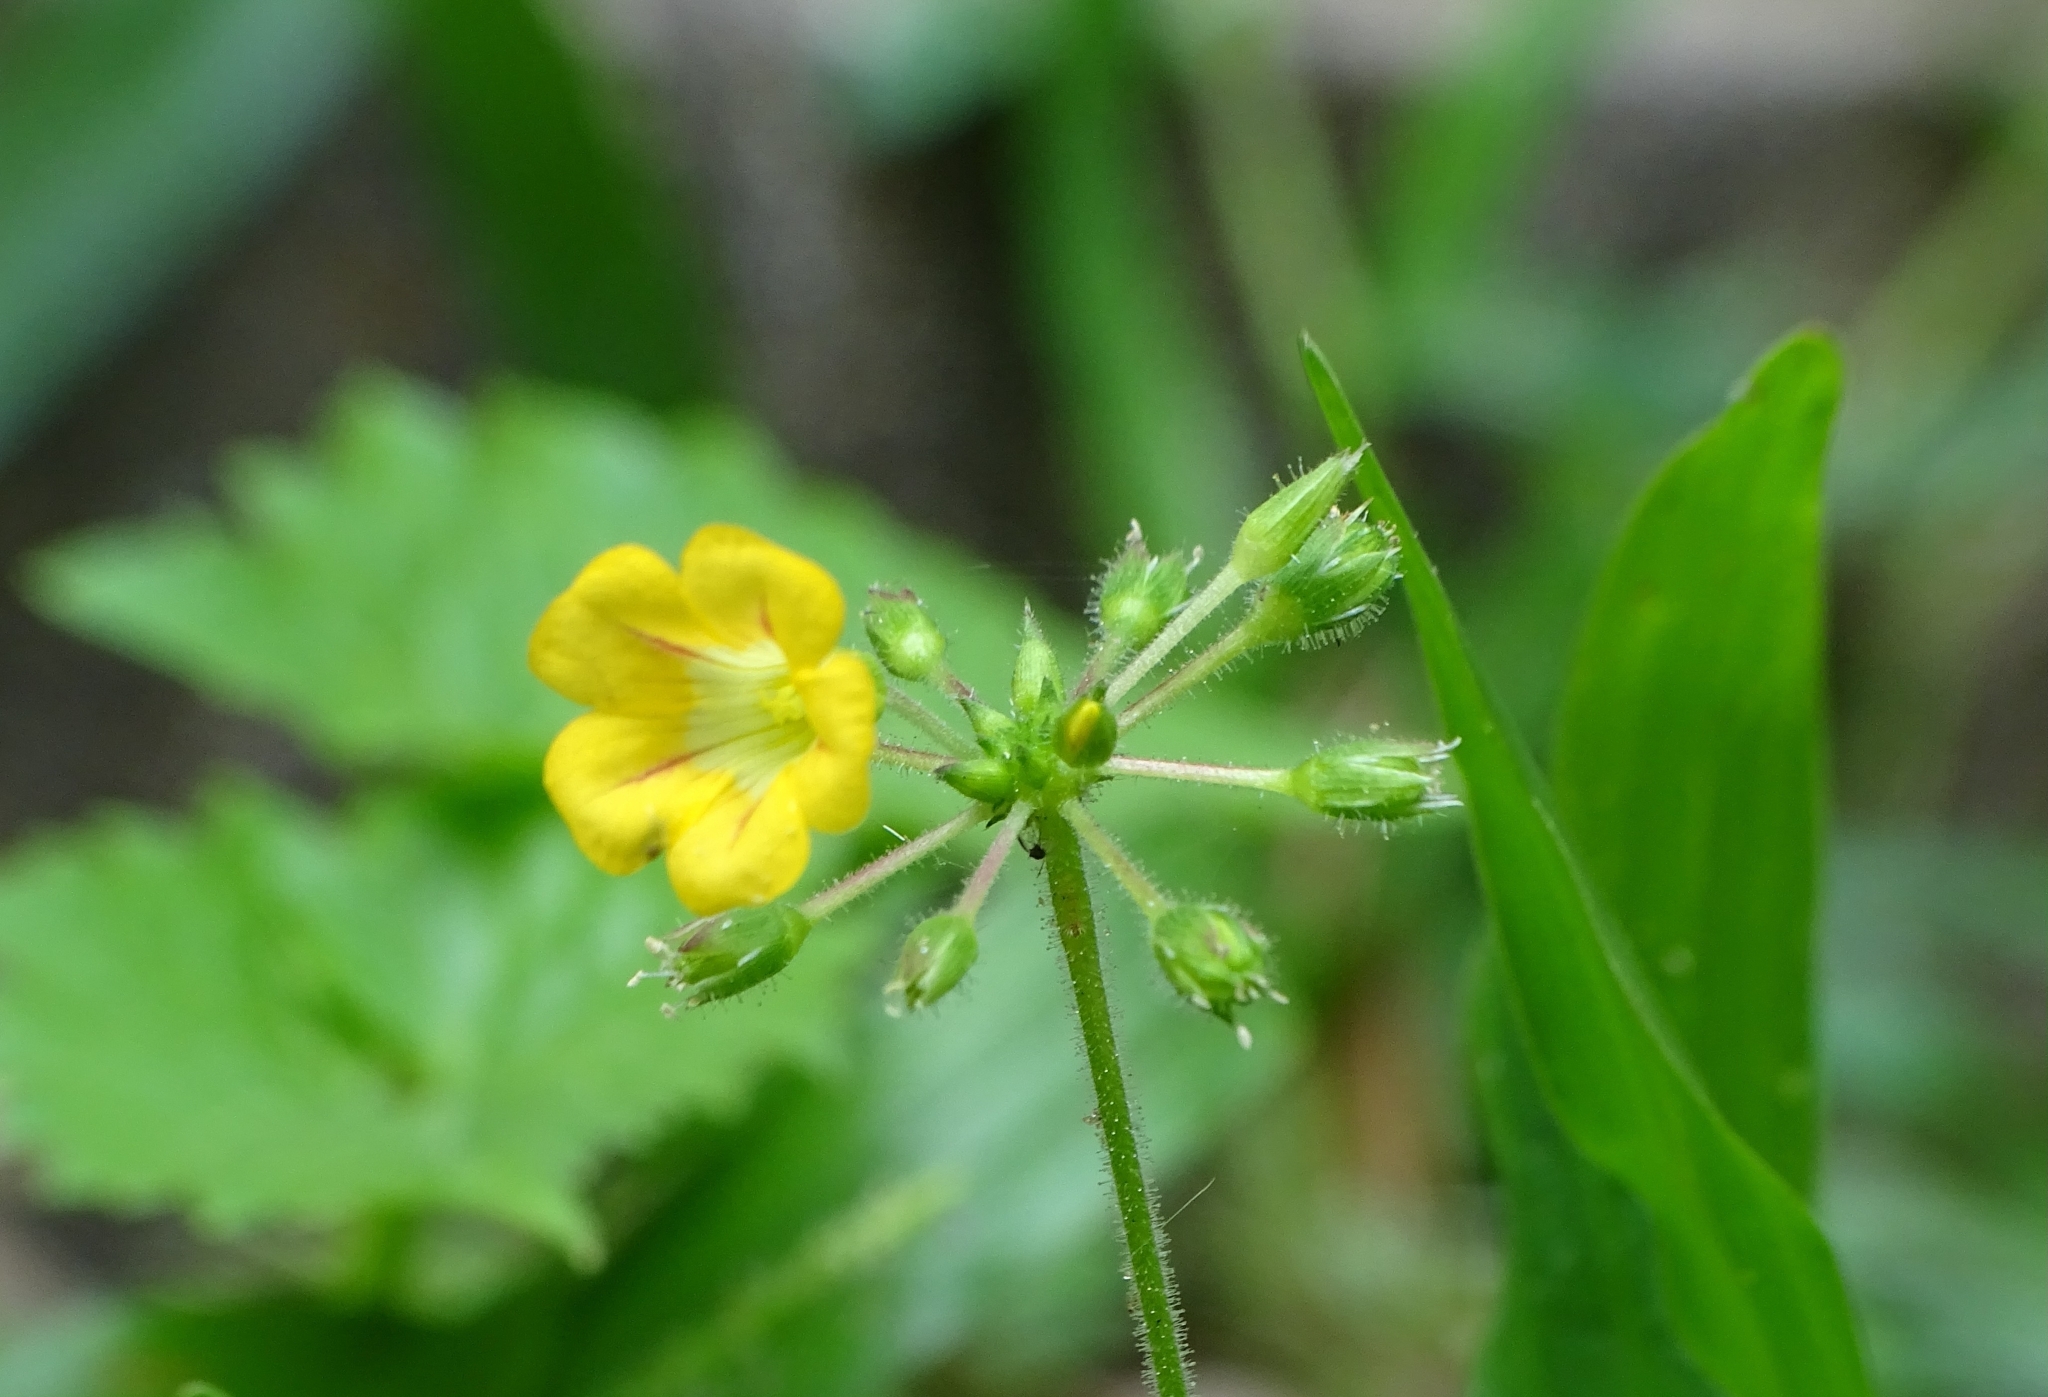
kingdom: Plantae
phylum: Tracheophyta
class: Magnoliopsida
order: Oxalidales
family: Oxalidaceae
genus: Biophytum
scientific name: Biophytum sensitivum
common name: Lifeplant
